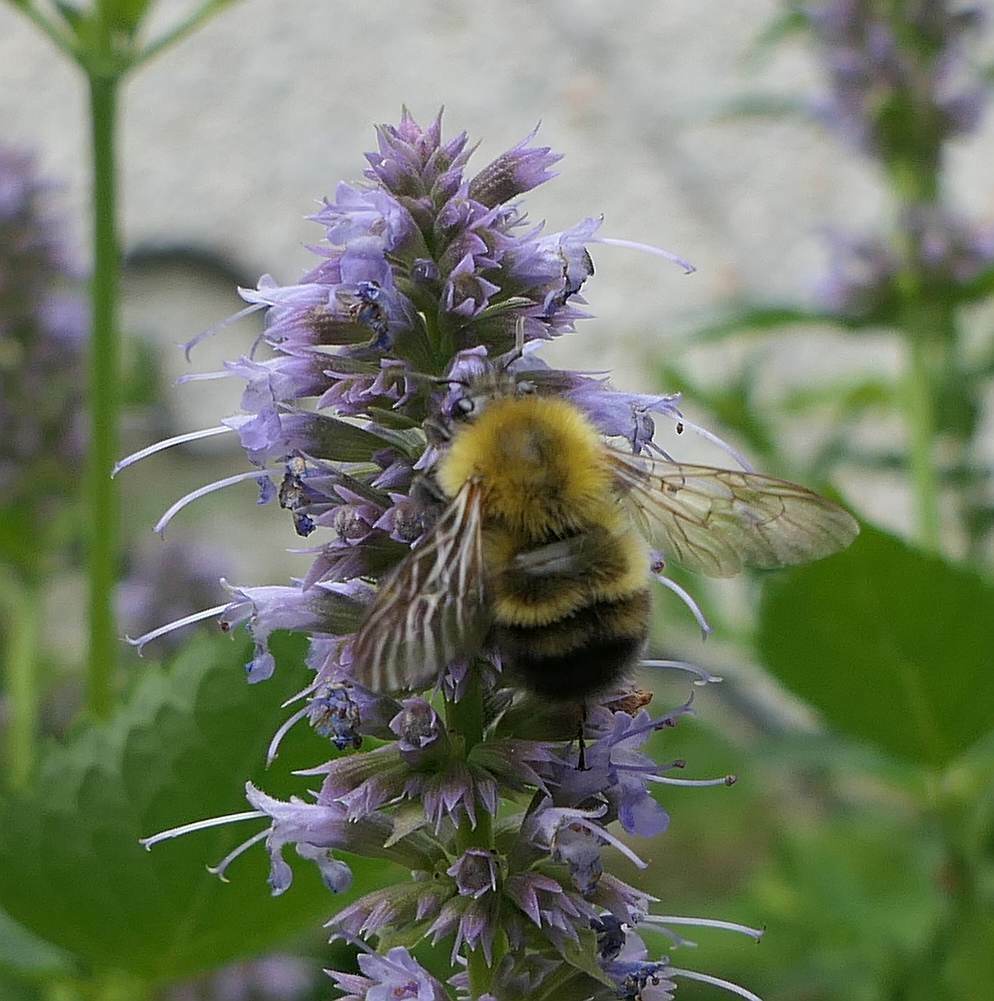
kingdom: Animalia
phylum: Arthropoda
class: Insecta
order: Hymenoptera
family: Apidae
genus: Bombus
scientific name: Bombus perplexus
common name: Confusing bumble bee
